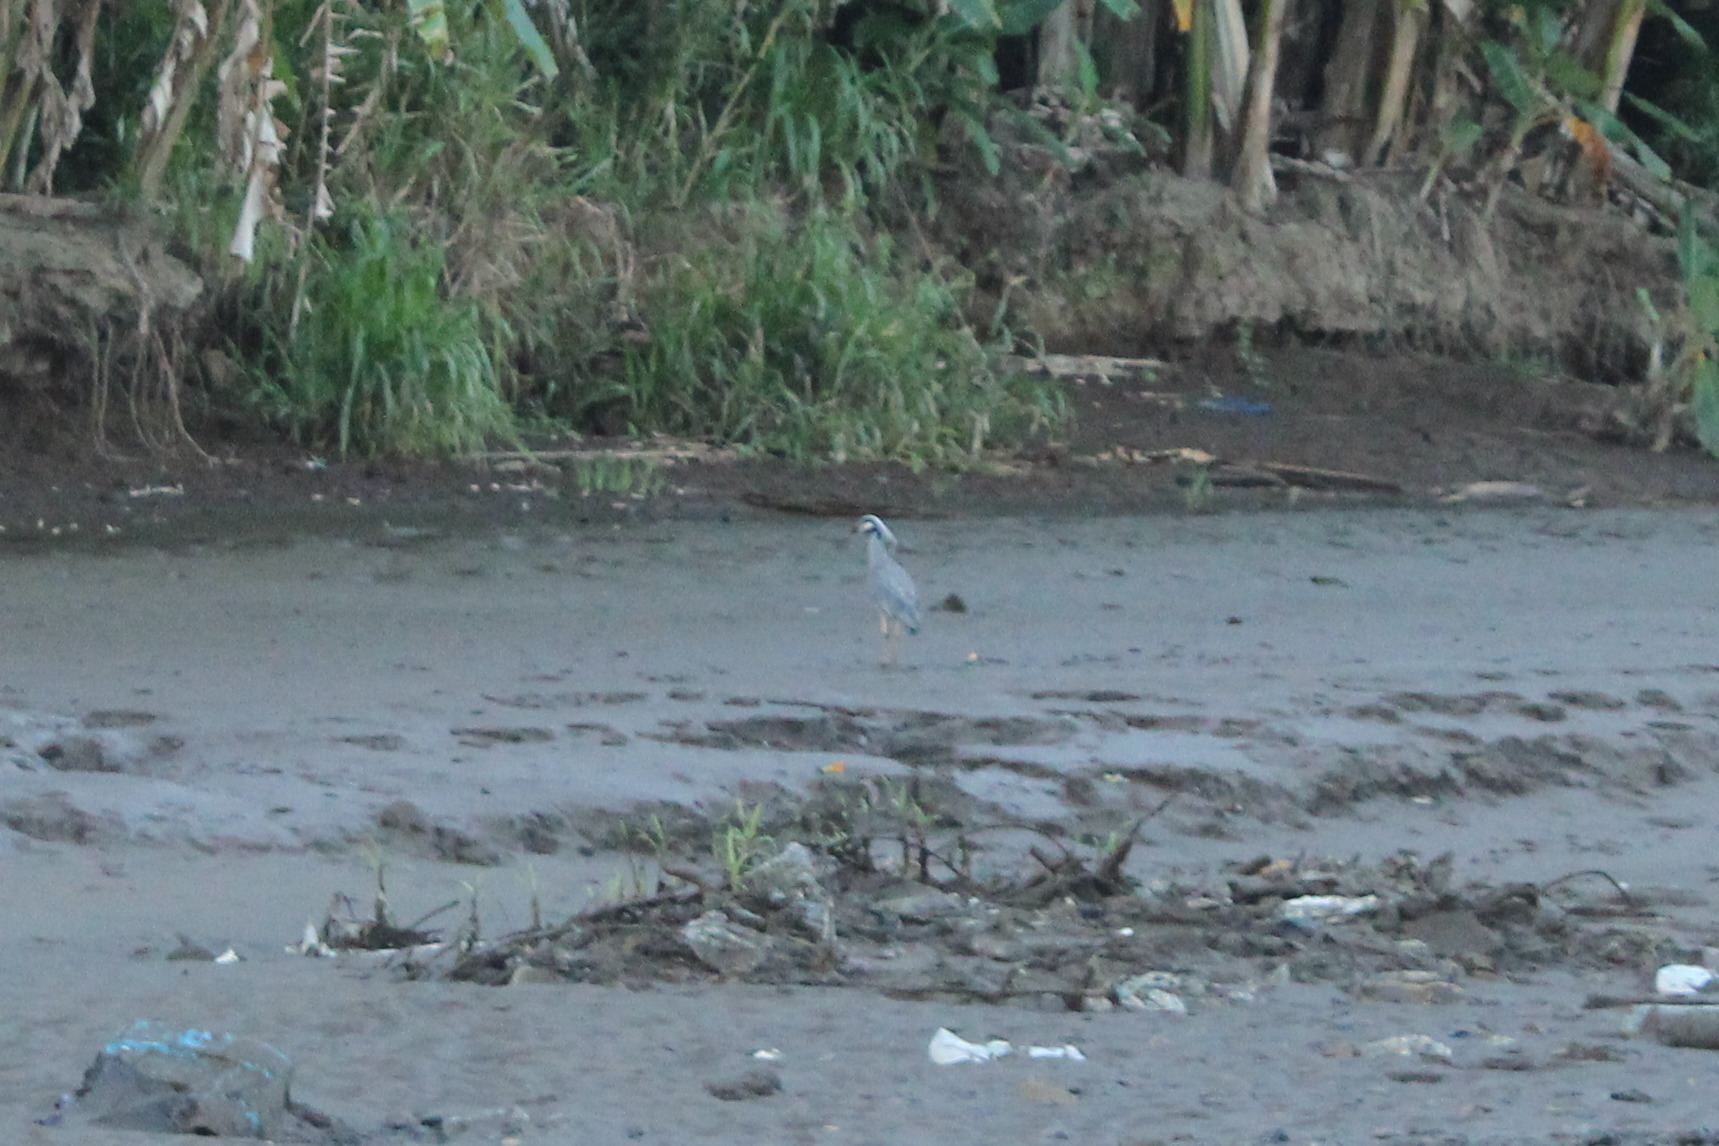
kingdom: Animalia
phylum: Chordata
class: Aves
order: Pelecaniformes
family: Ardeidae
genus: Nyctanassa
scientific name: Nyctanassa violacea
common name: Yellow-crowned night heron
